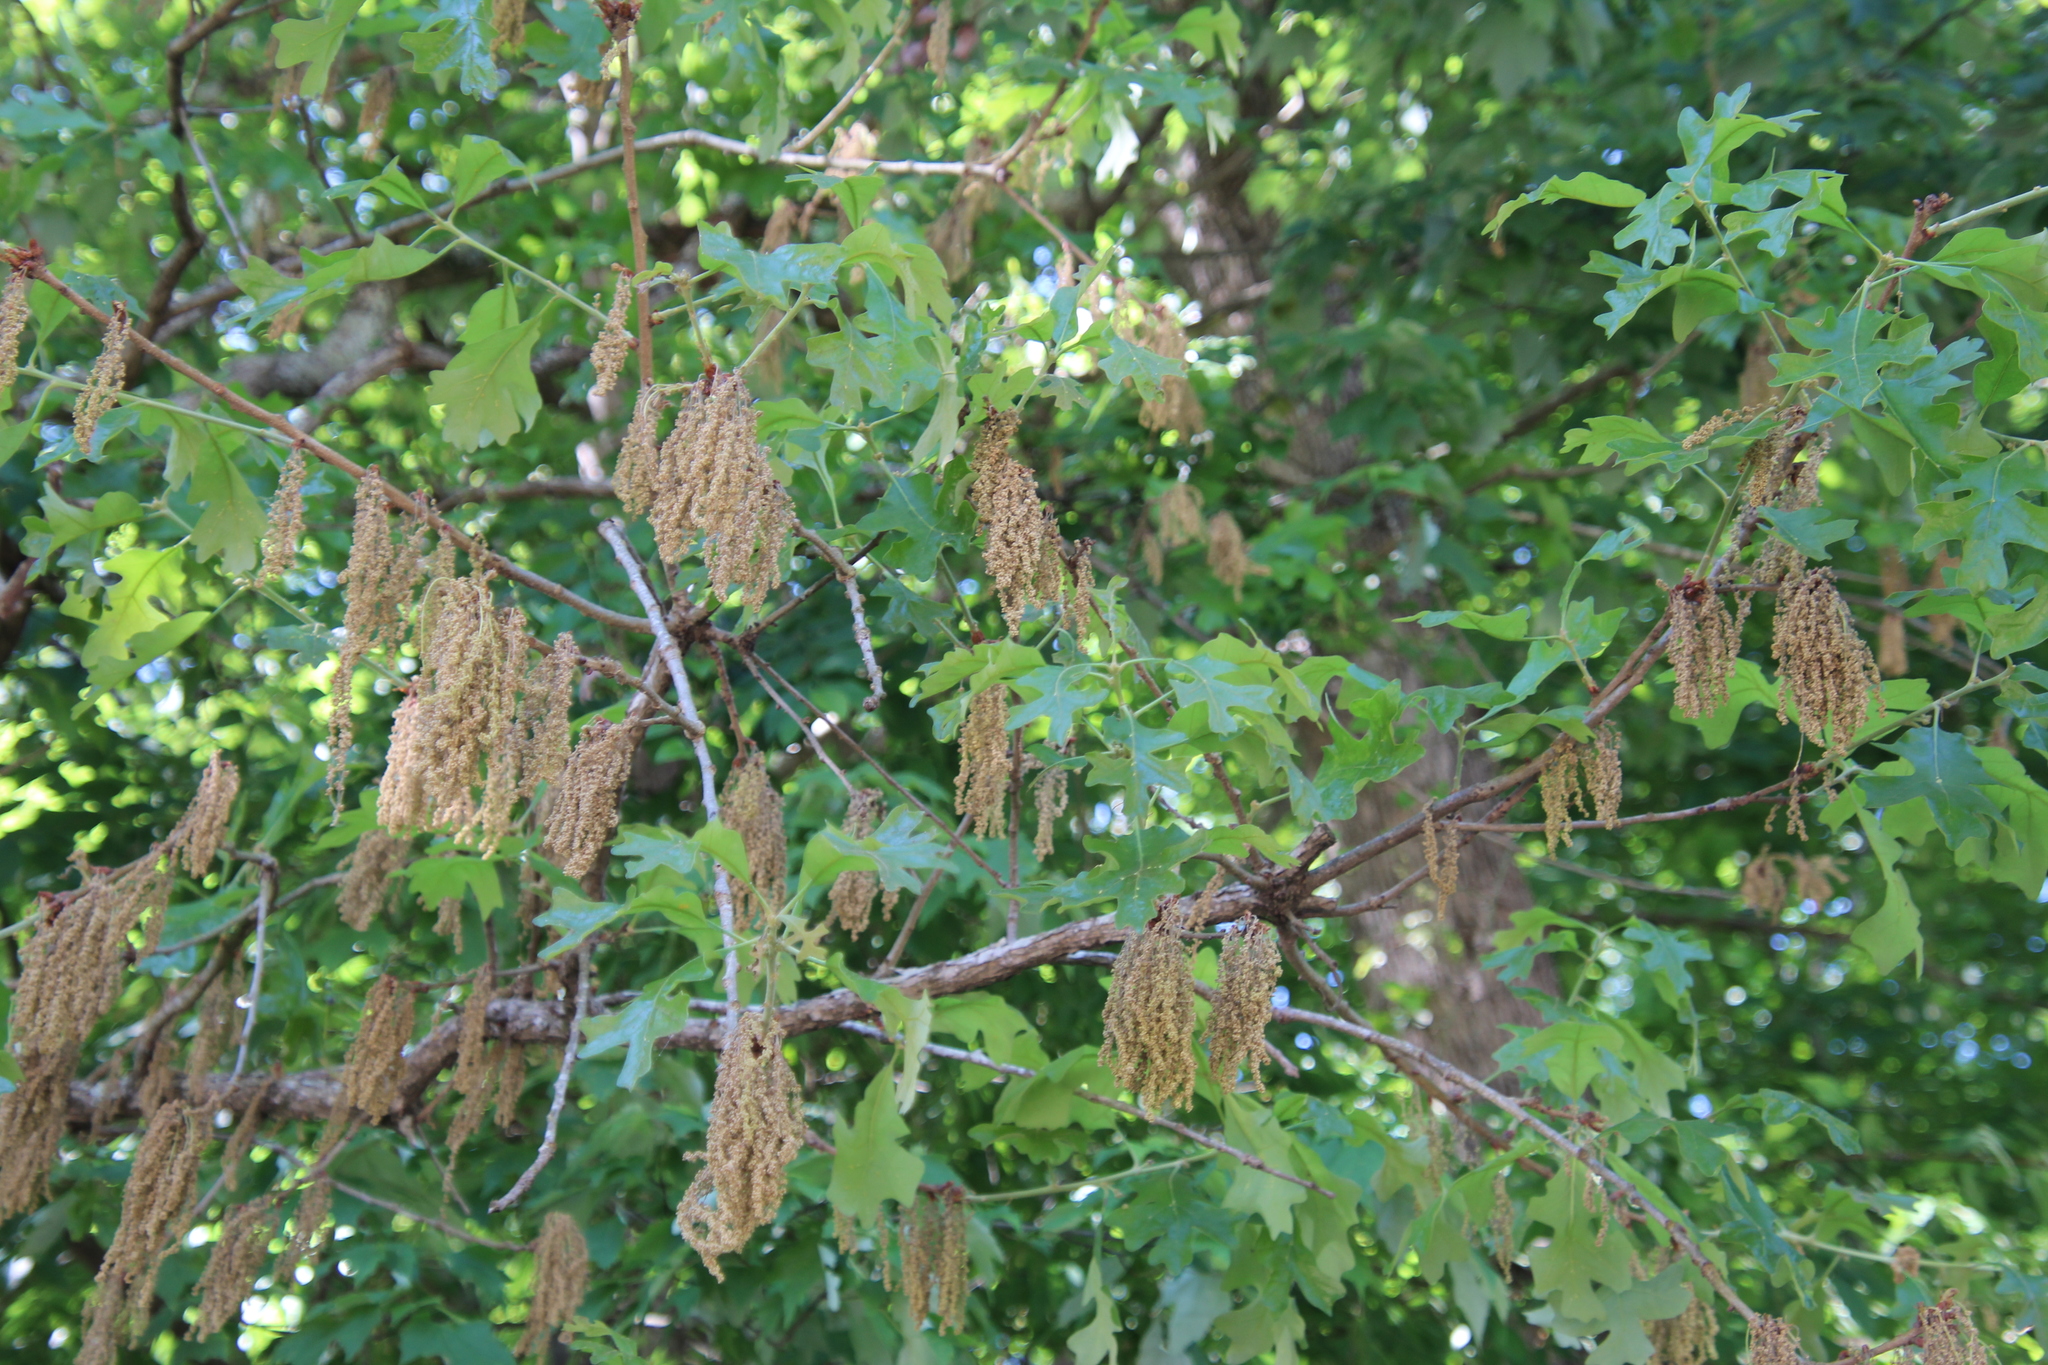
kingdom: Plantae
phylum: Tracheophyta
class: Magnoliopsida
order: Fagales
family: Fagaceae
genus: Quercus
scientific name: Quercus stellata
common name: Post oak
